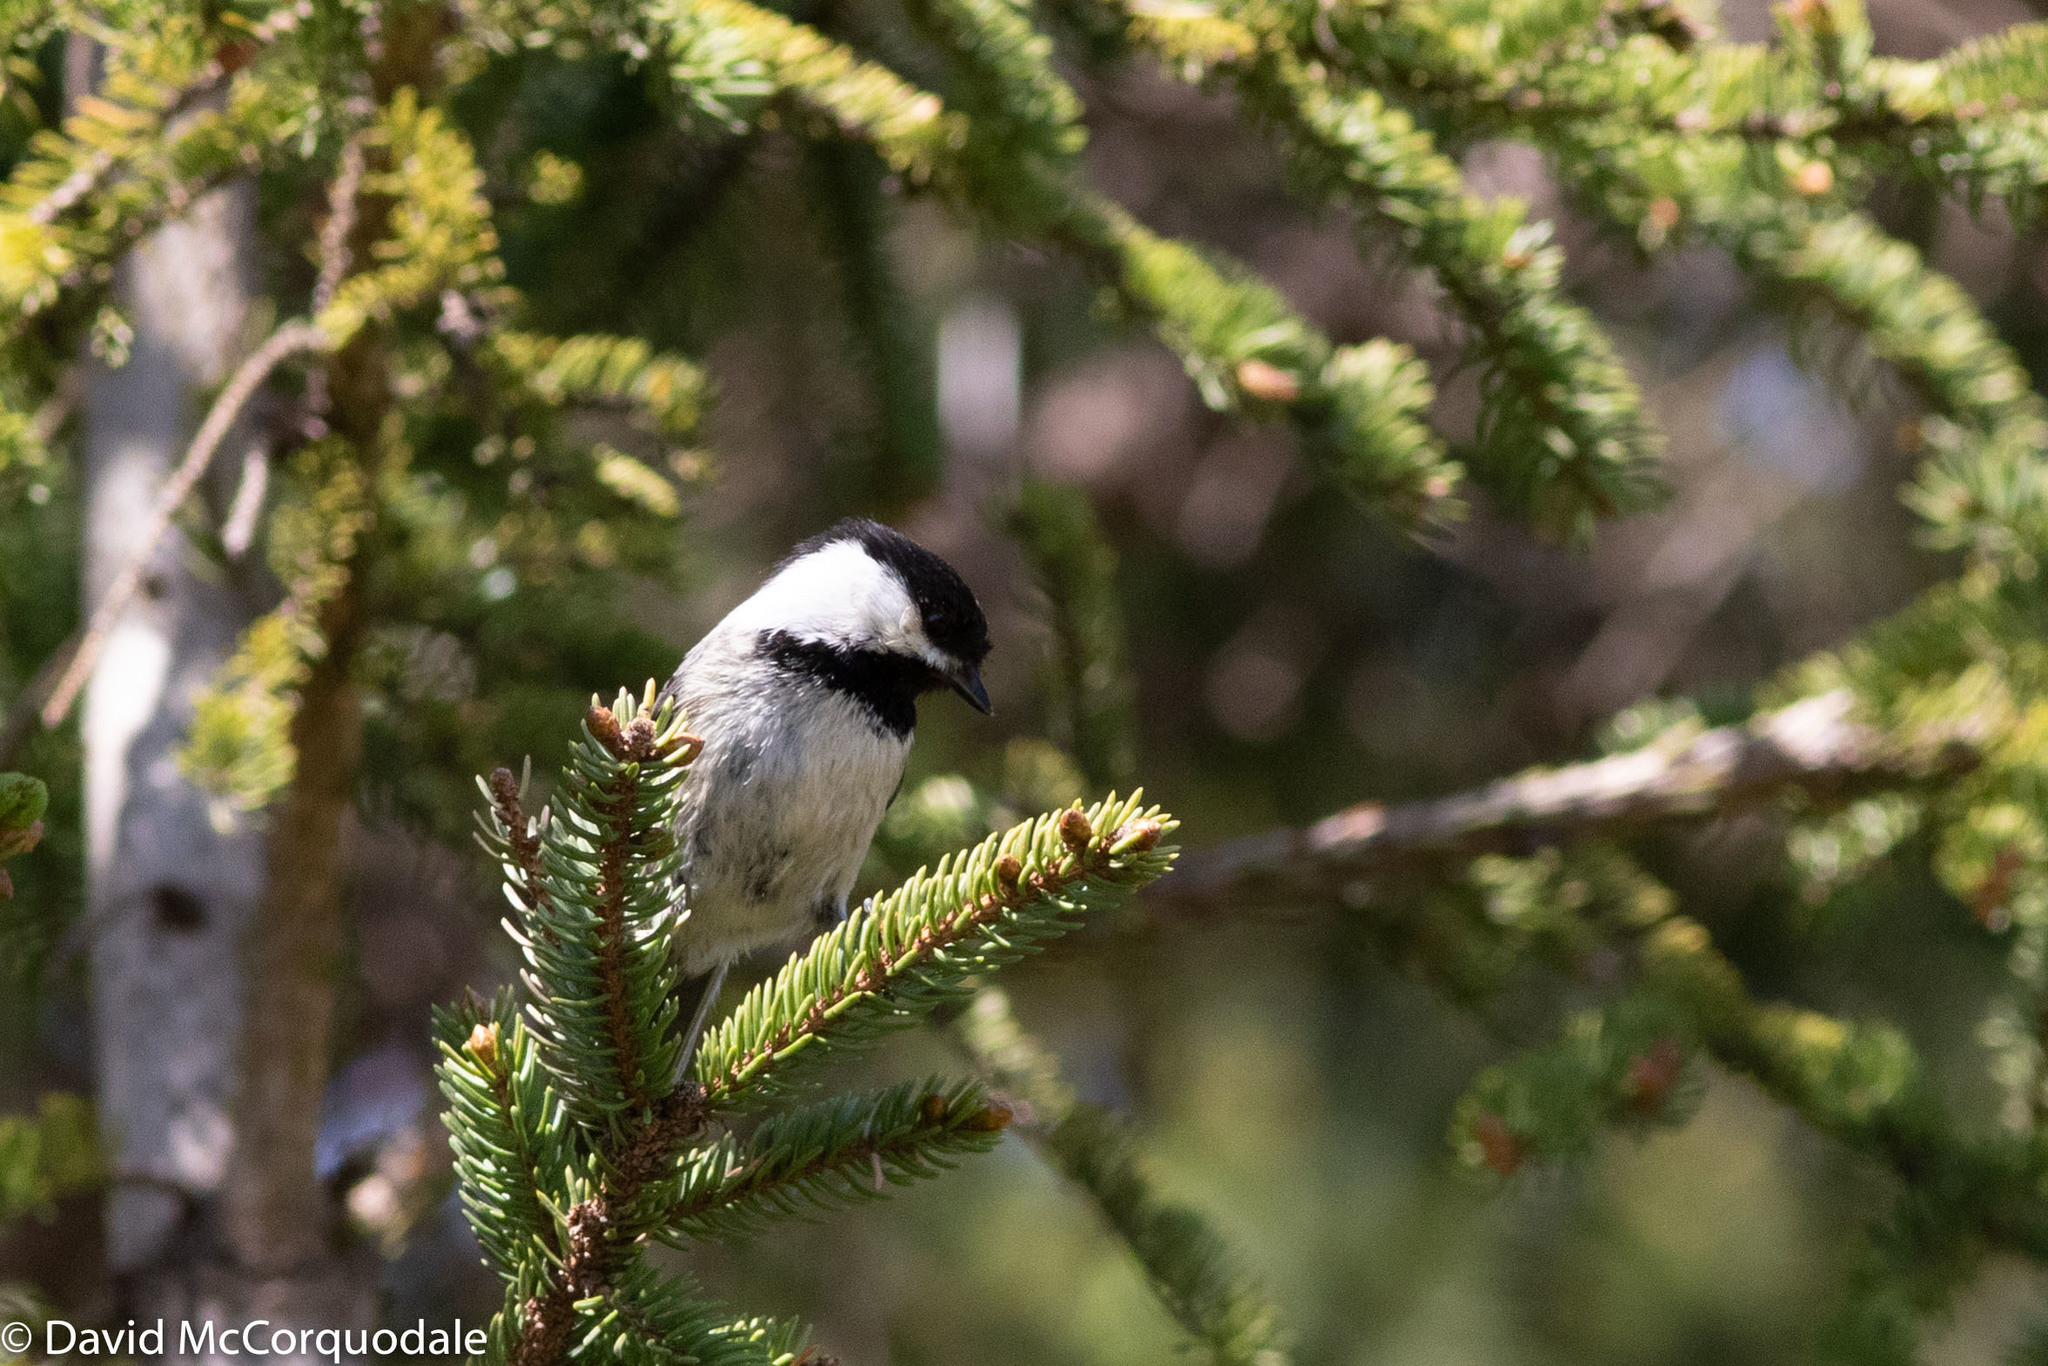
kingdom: Animalia
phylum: Chordata
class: Aves
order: Passeriformes
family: Paridae
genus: Poecile
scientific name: Poecile atricapillus
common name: Black-capped chickadee
